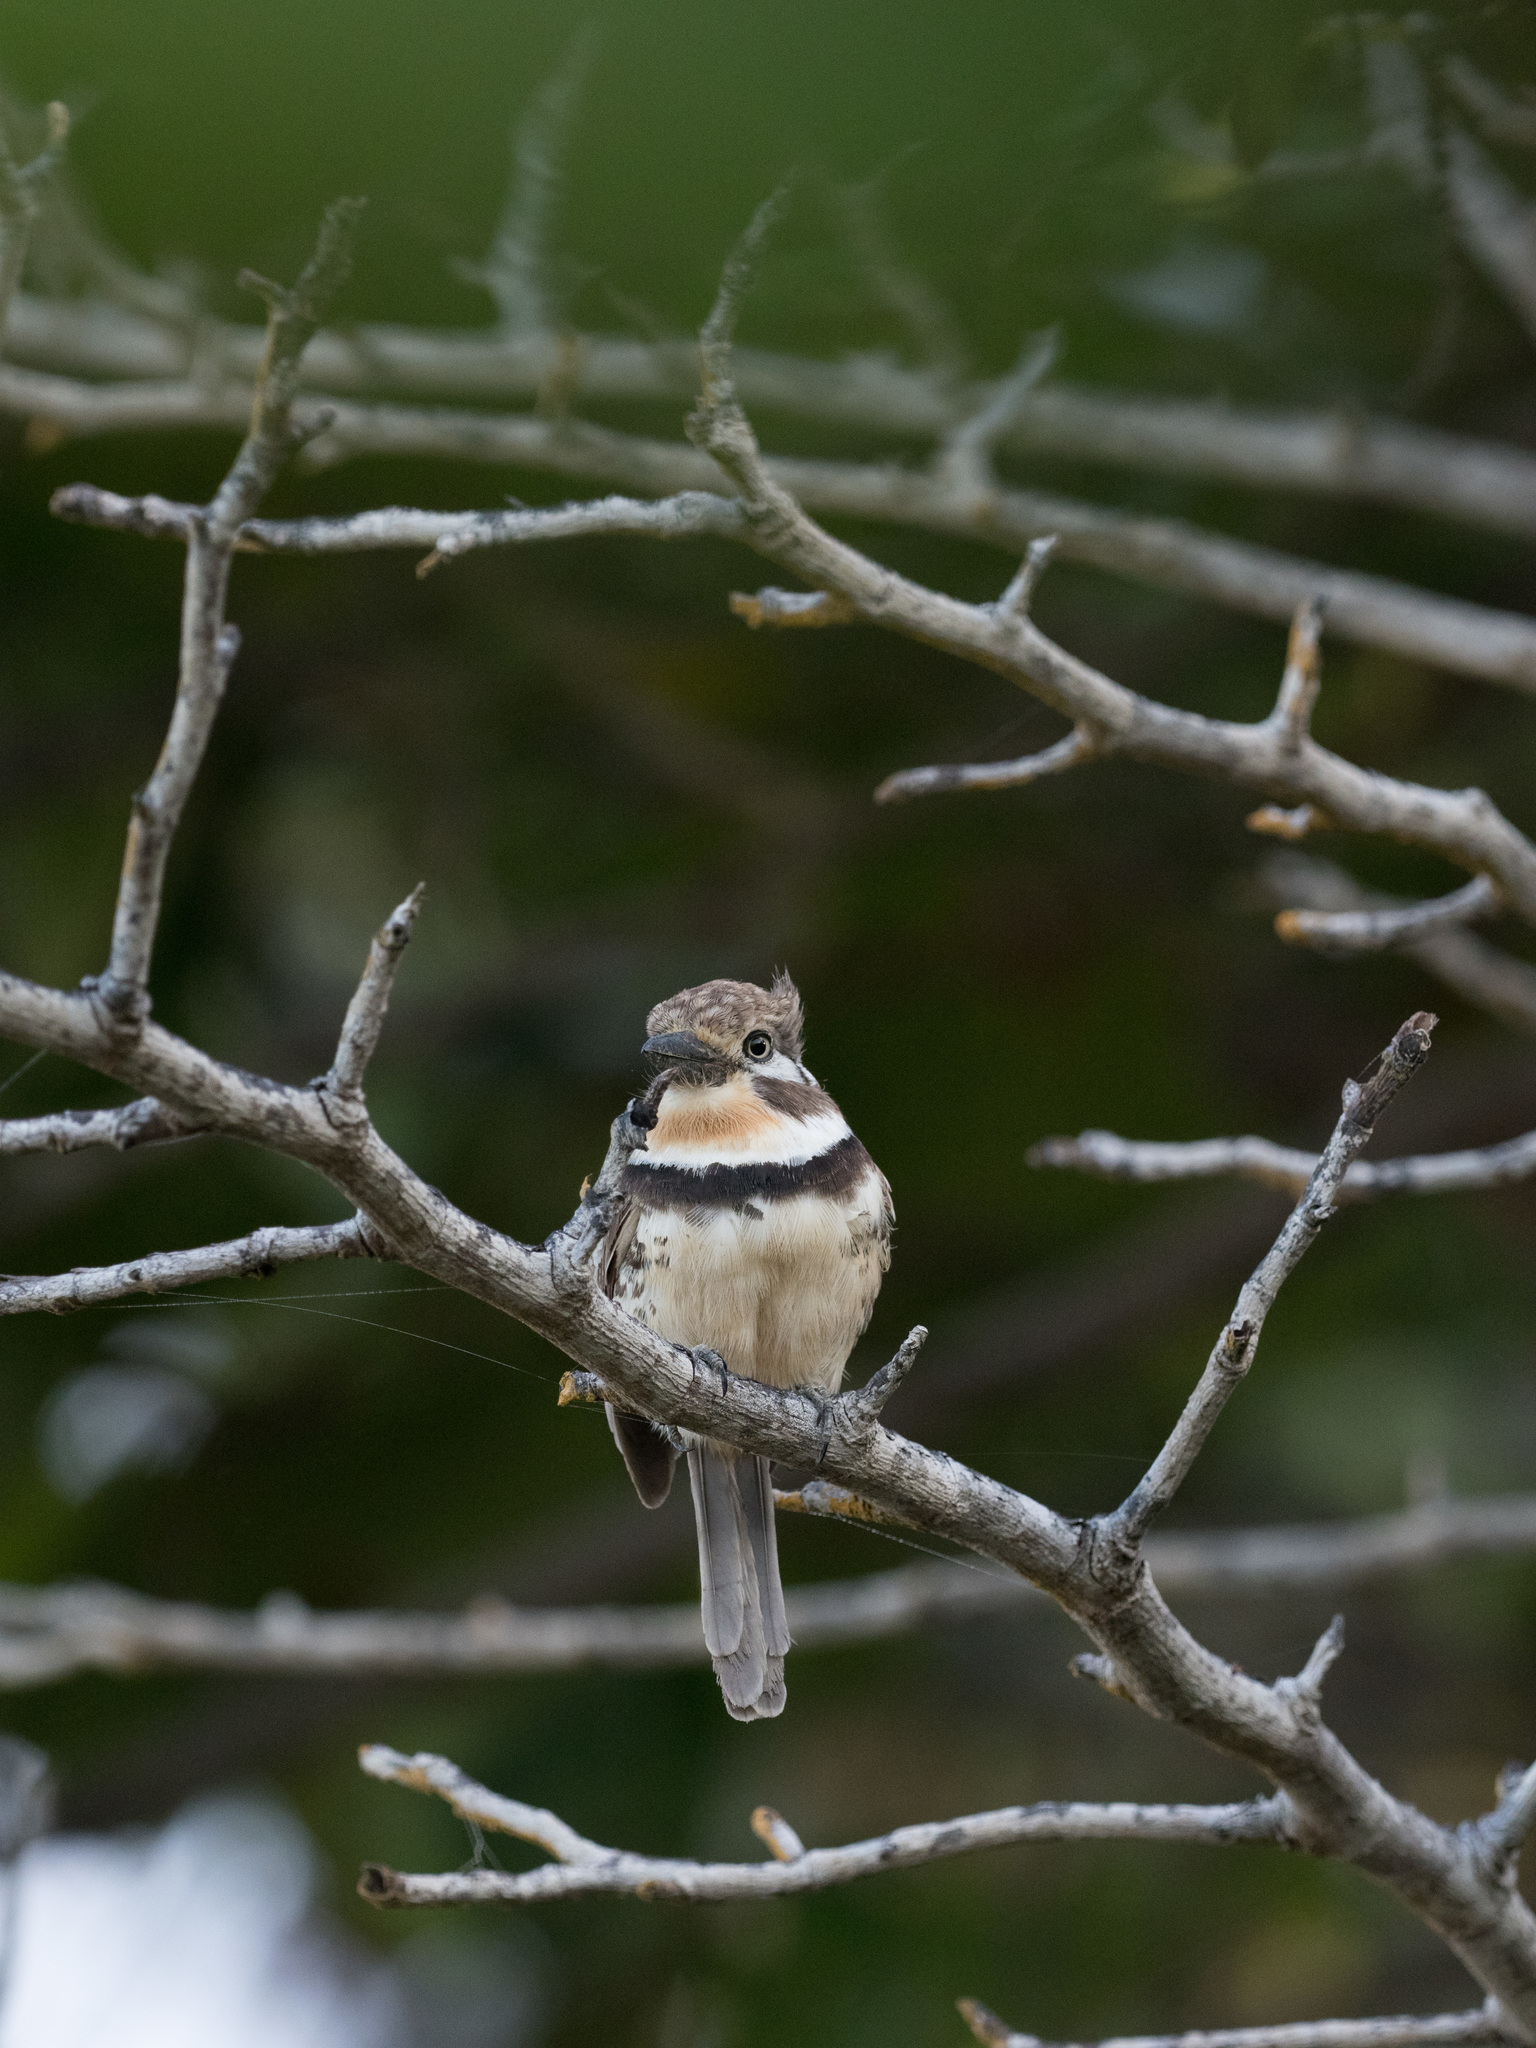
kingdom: Animalia
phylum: Chordata
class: Aves
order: Piciformes
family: Bucconidae
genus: Hypnelus
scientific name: Hypnelus ruficollis
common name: Russet-throated puffbird
